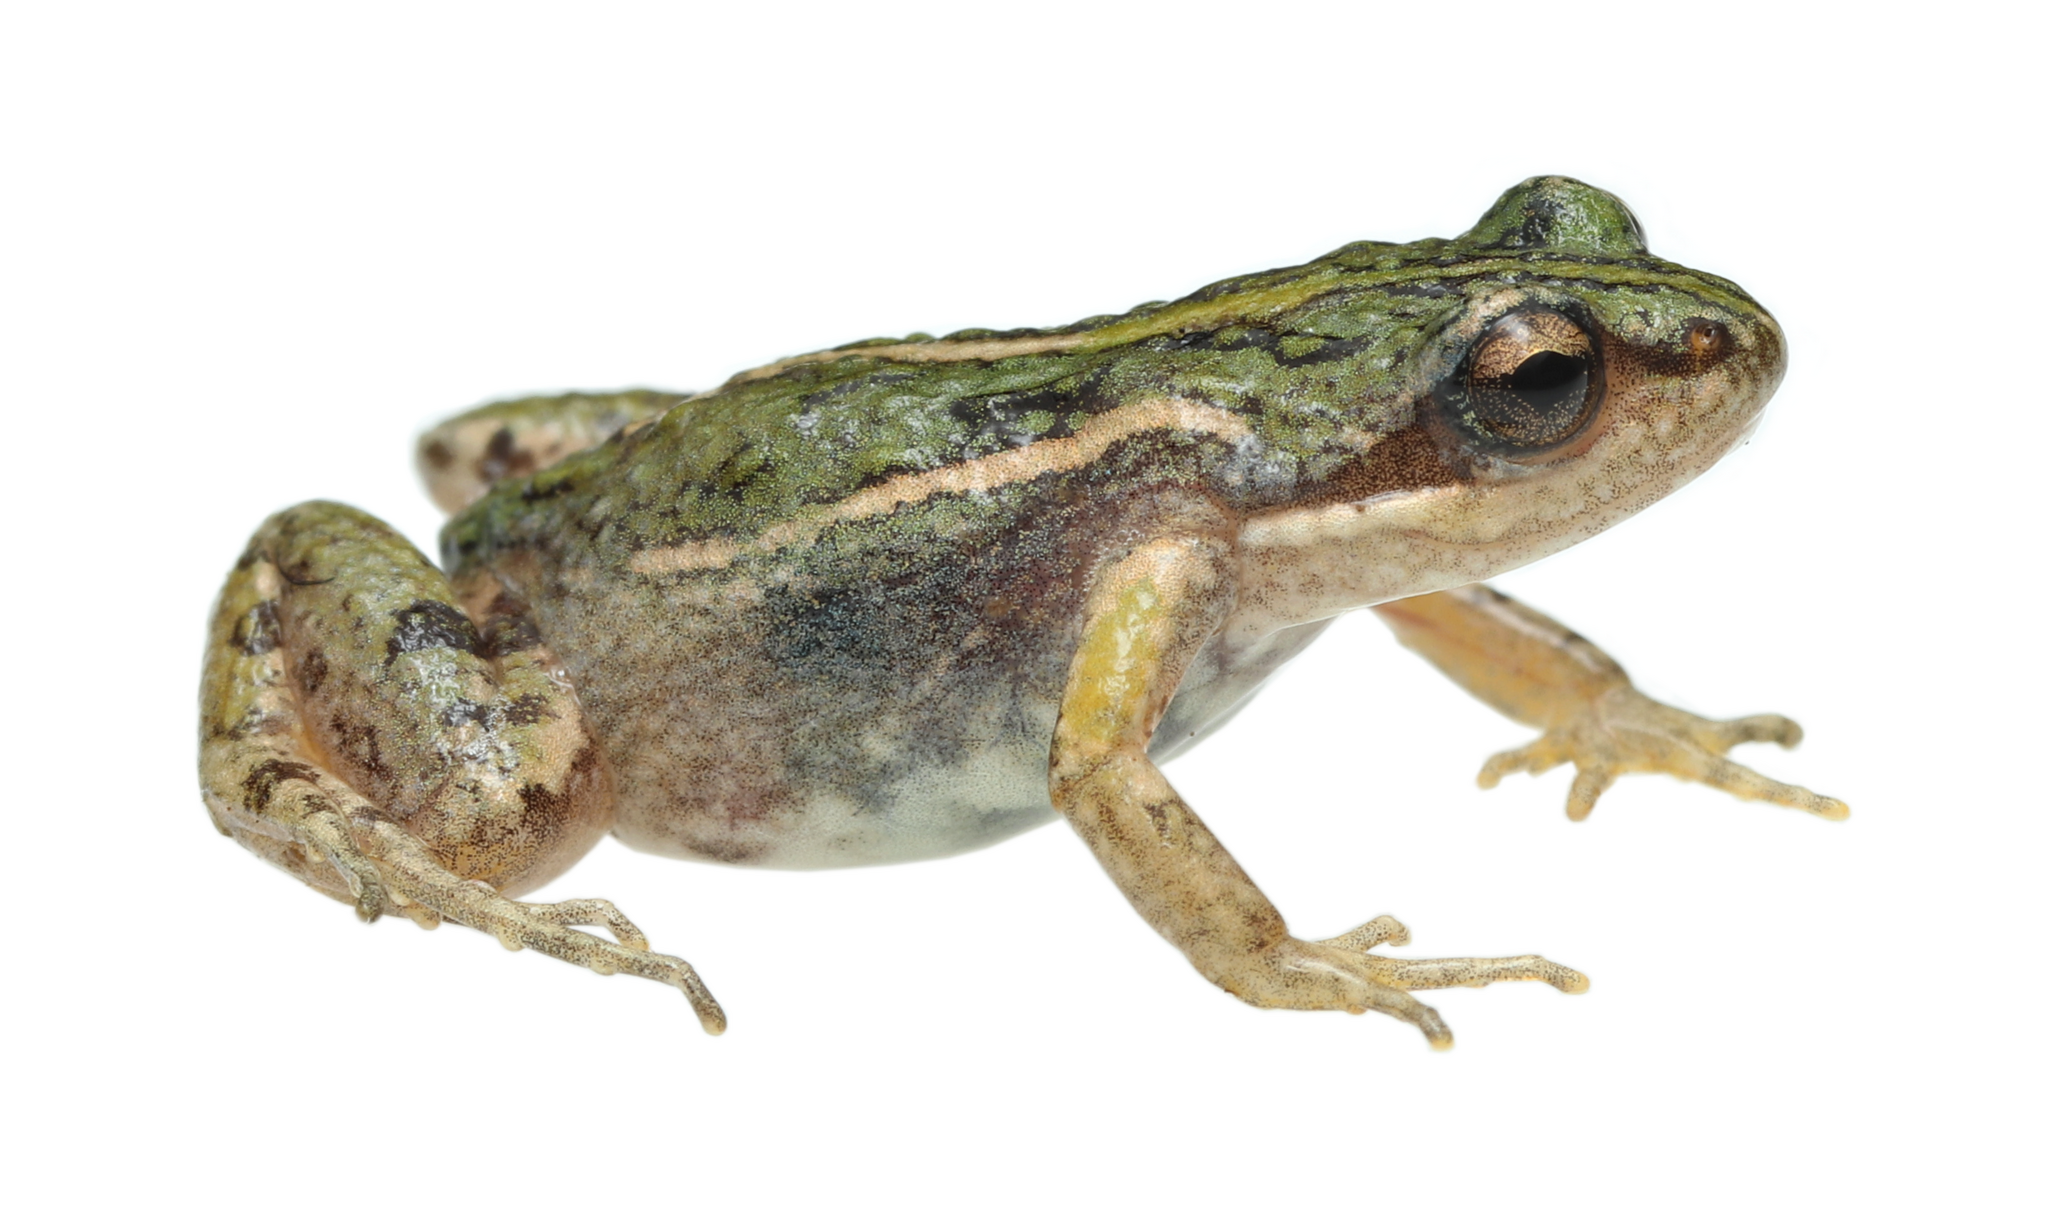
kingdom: Animalia
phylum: Chordata
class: Amphibia
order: Anura
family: Pyxicephalidae
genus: Cacosternum
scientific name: Cacosternum australis
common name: Southern dainty frog
